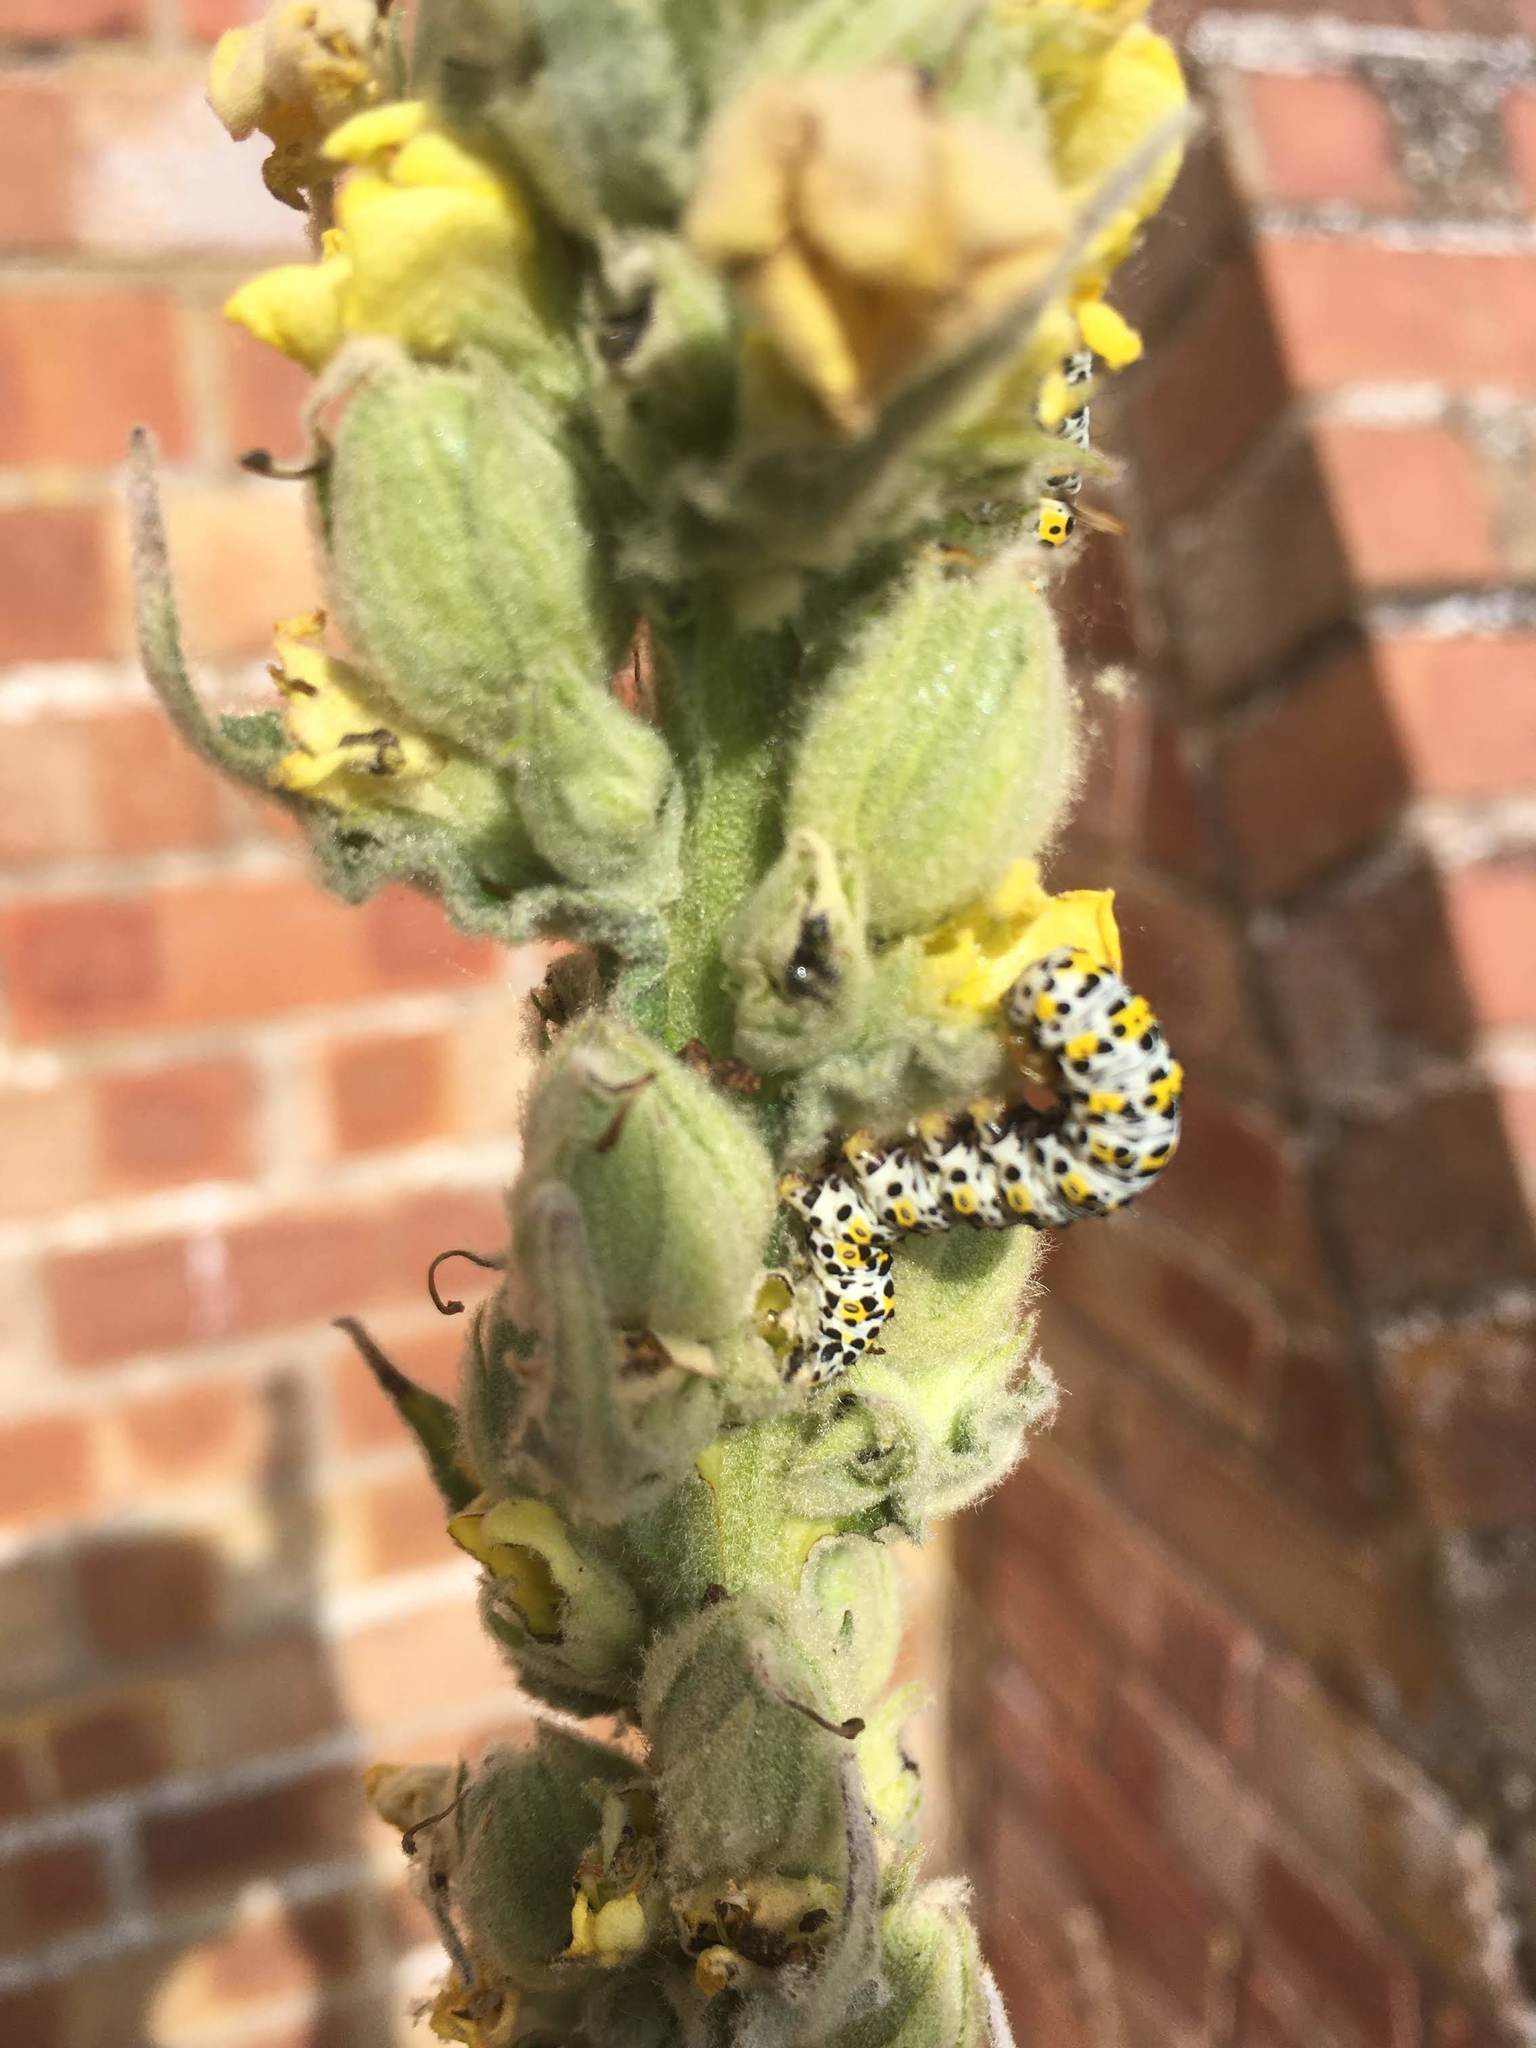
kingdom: Animalia
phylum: Arthropoda
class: Insecta
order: Lepidoptera
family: Noctuidae
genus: Cucullia
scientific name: Cucullia verbasci
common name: Mullein
